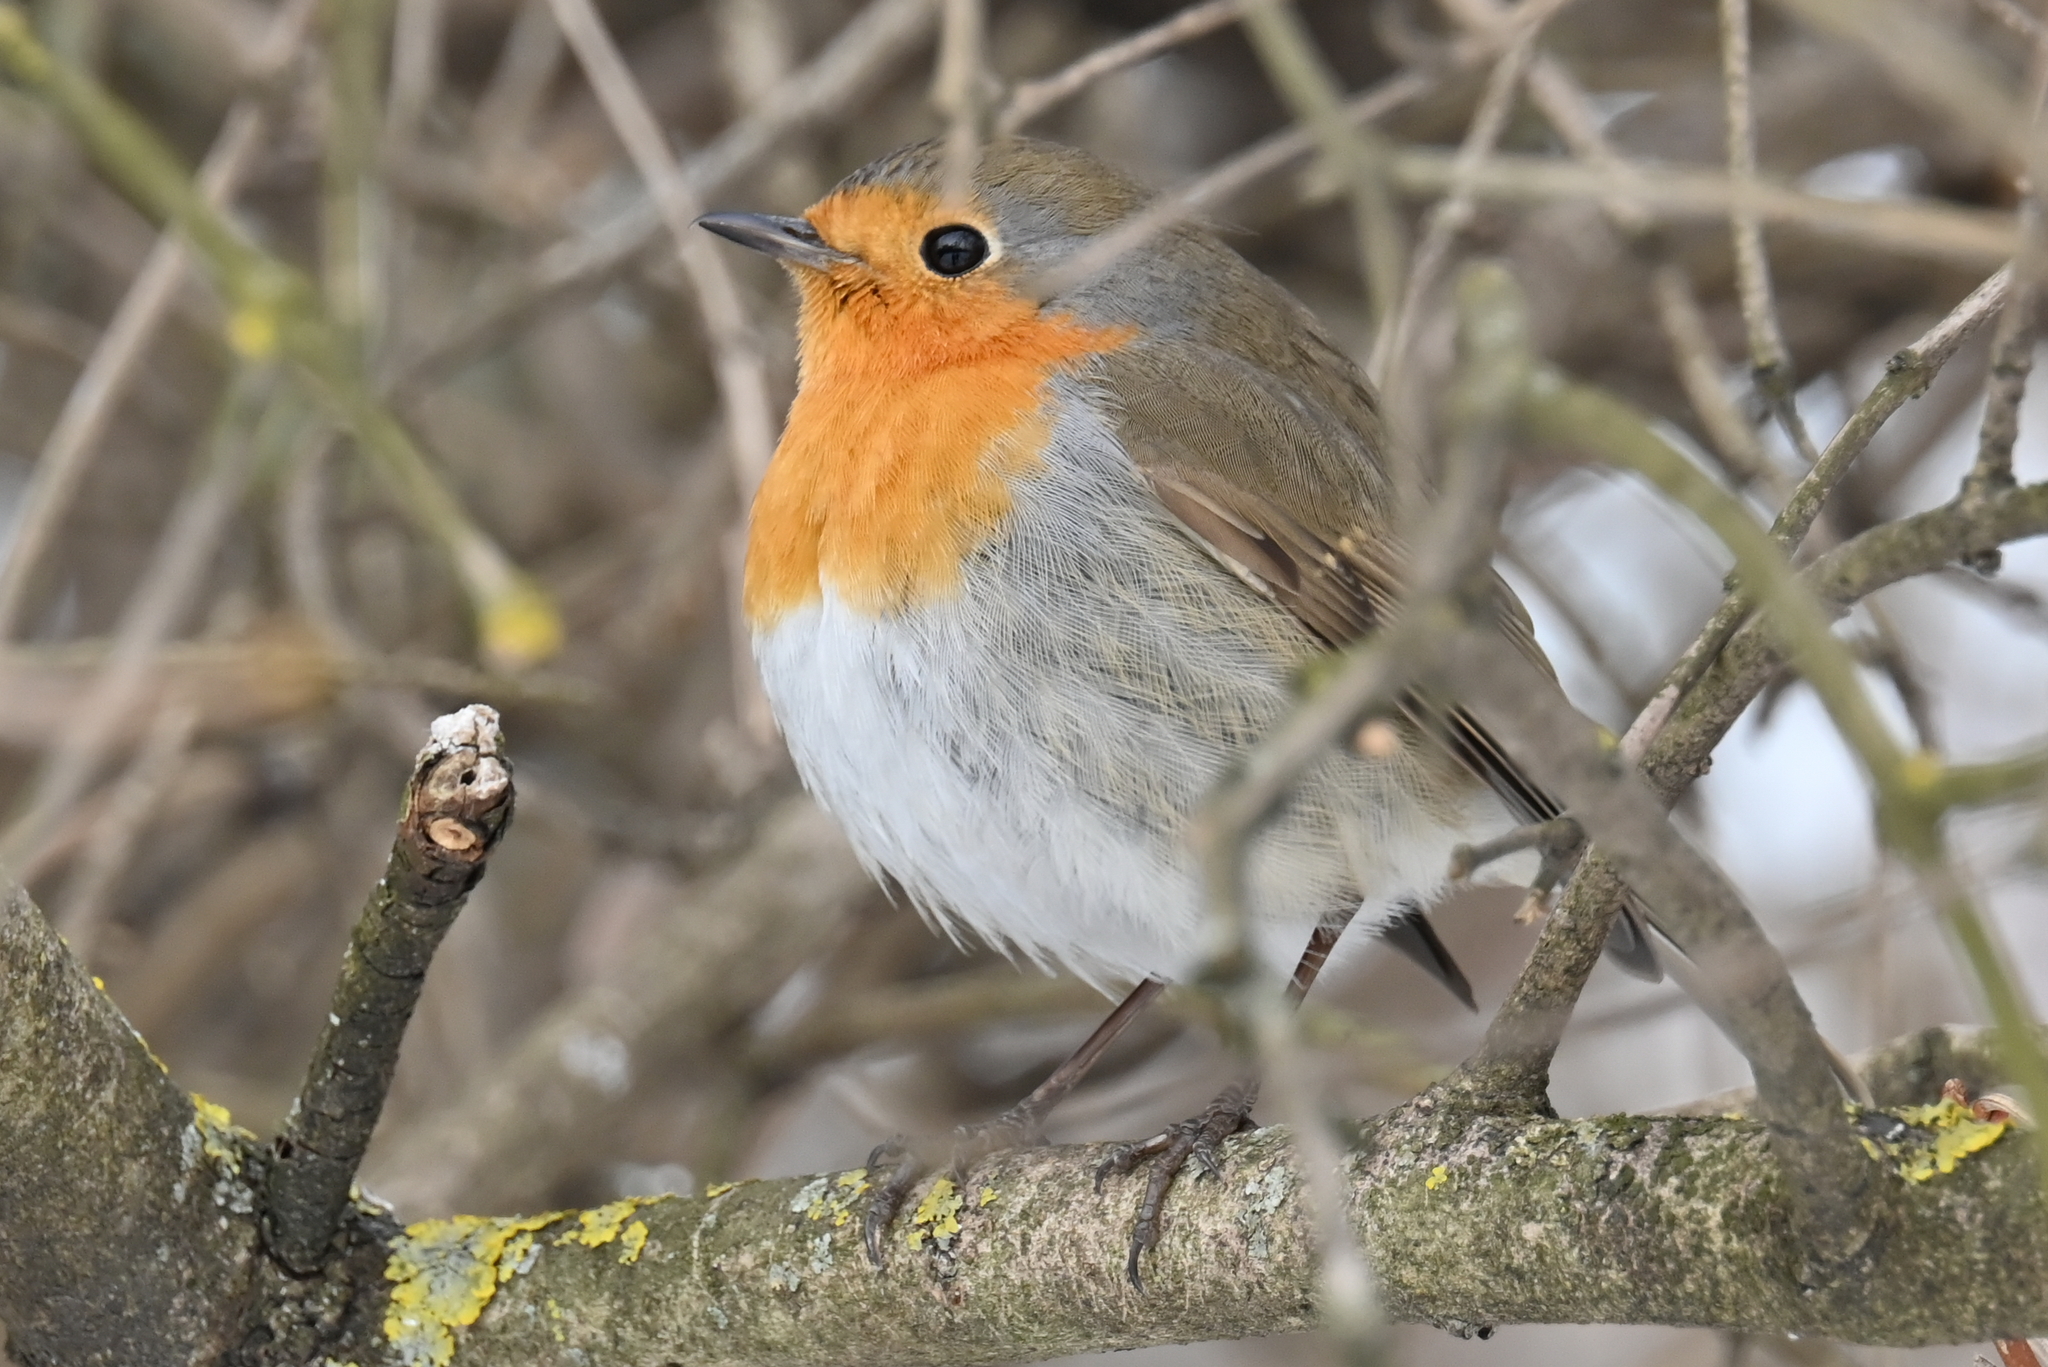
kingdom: Animalia
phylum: Chordata
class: Aves
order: Passeriformes
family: Muscicapidae
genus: Erithacus
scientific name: Erithacus rubecula
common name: European robin
